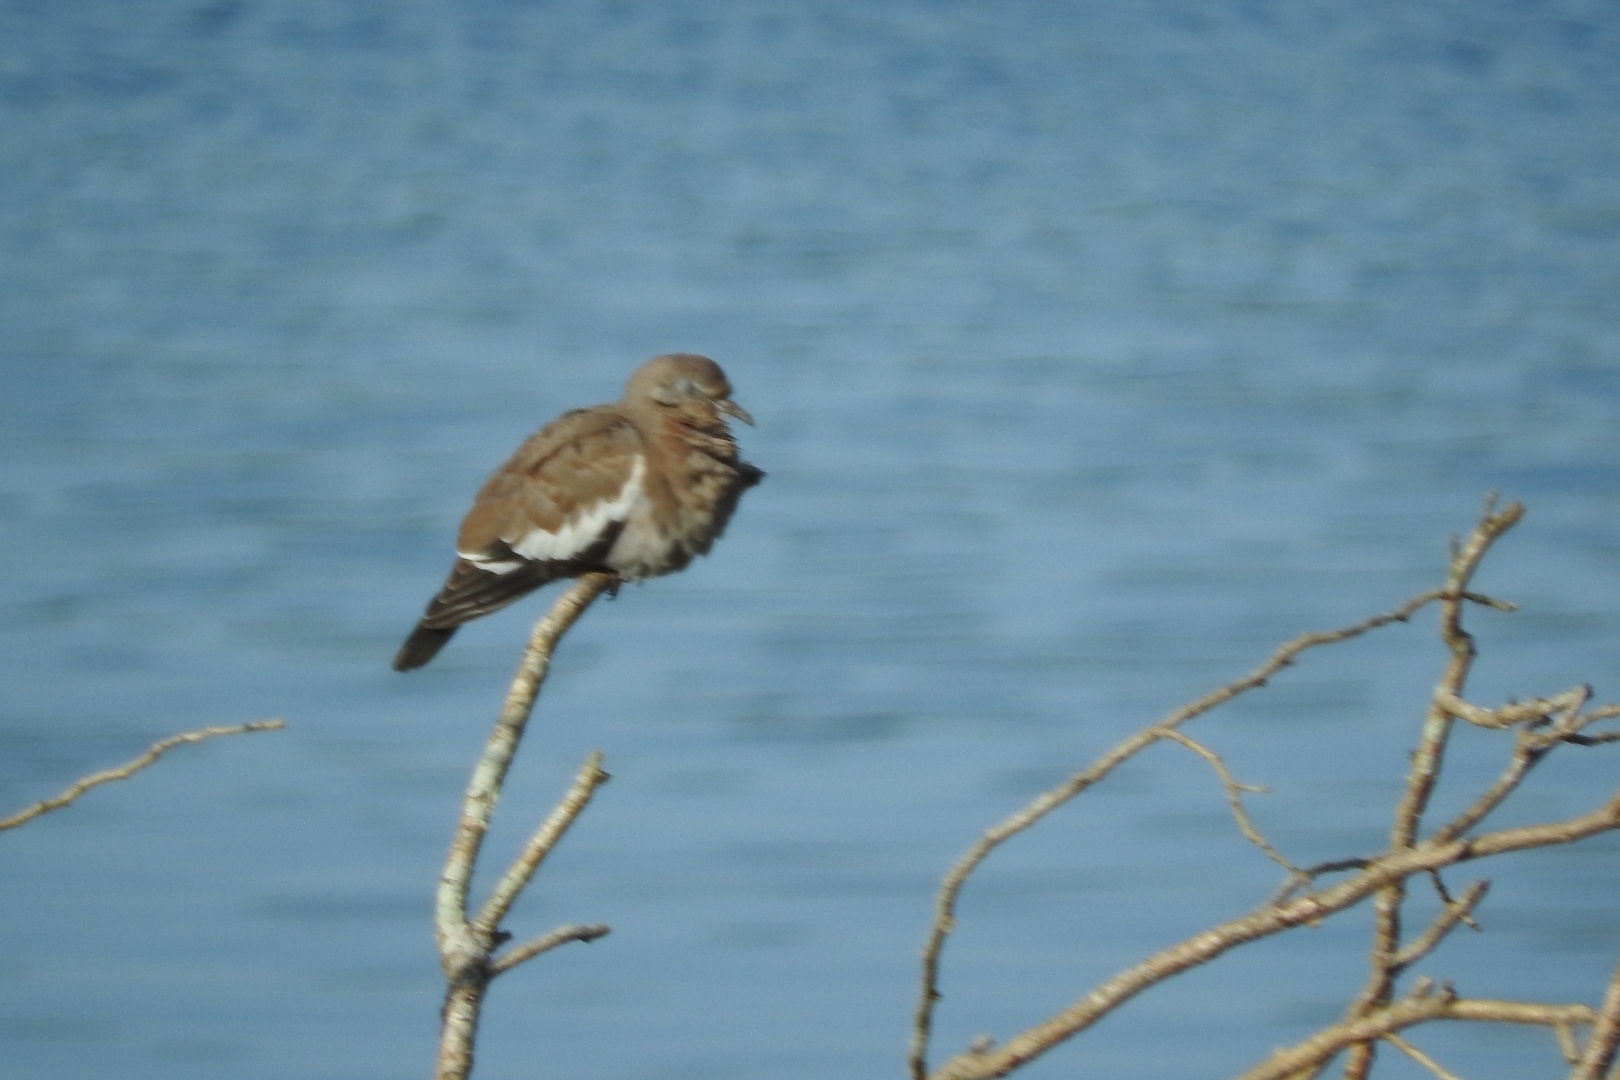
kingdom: Animalia
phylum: Chordata
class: Aves
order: Columbiformes
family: Columbidae
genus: Zenaida
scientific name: Zenaida asiatica
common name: White-winged dove
